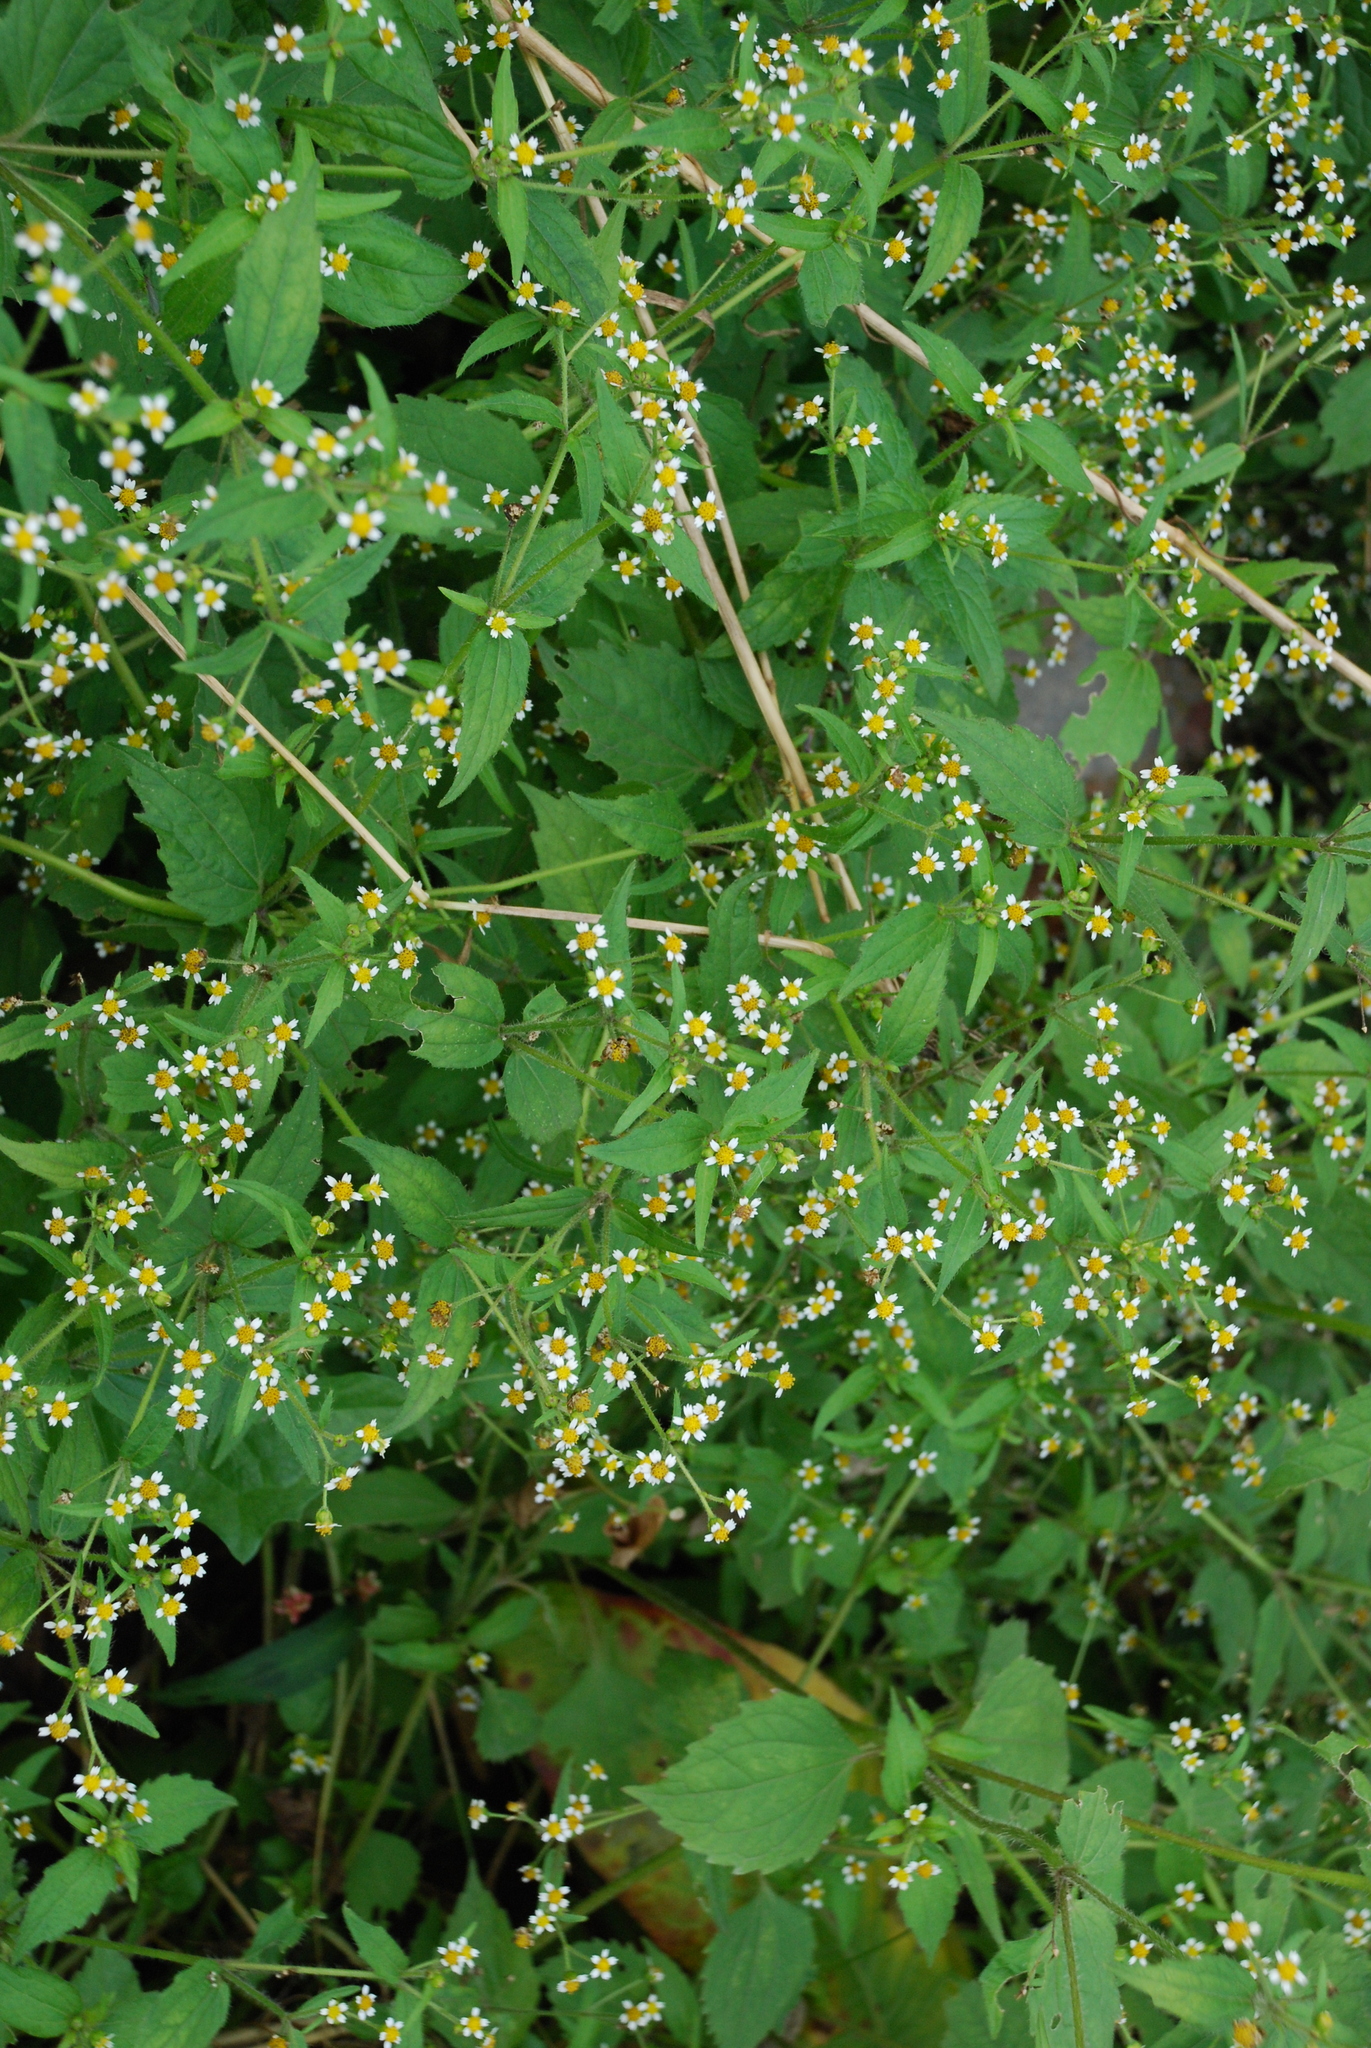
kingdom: Plantae
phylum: Tracheophyta
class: Magnoliopsida
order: Asterales
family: Asteraceae
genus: Galinsoga
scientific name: Galinsoga quadriradiata
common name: Shaggy soldier
